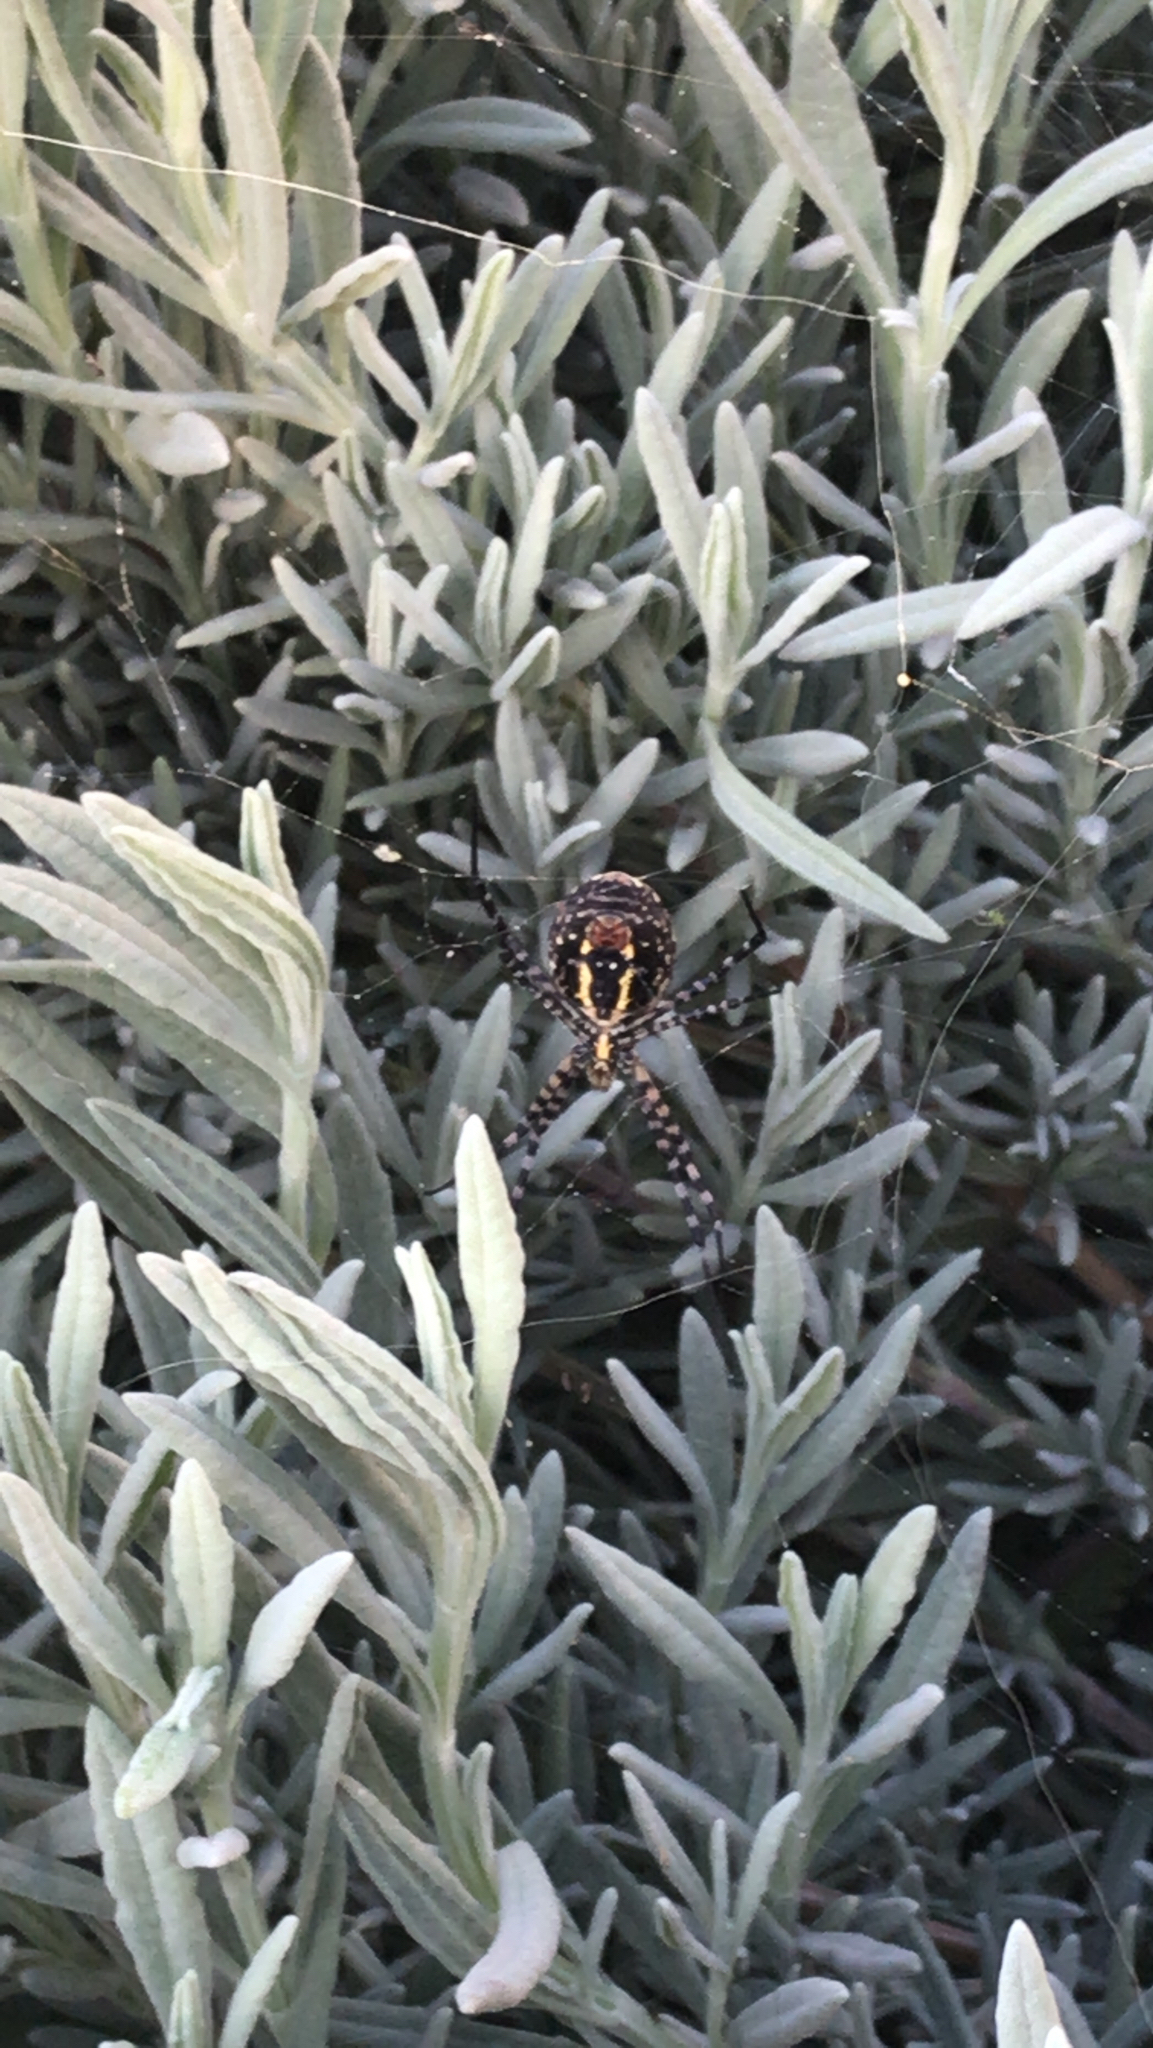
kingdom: Animalia
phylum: Arthropoda
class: Arachnida
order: Araneae
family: Araneidae
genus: Argiope
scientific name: Argiope trifasciata
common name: Banded garden spider
